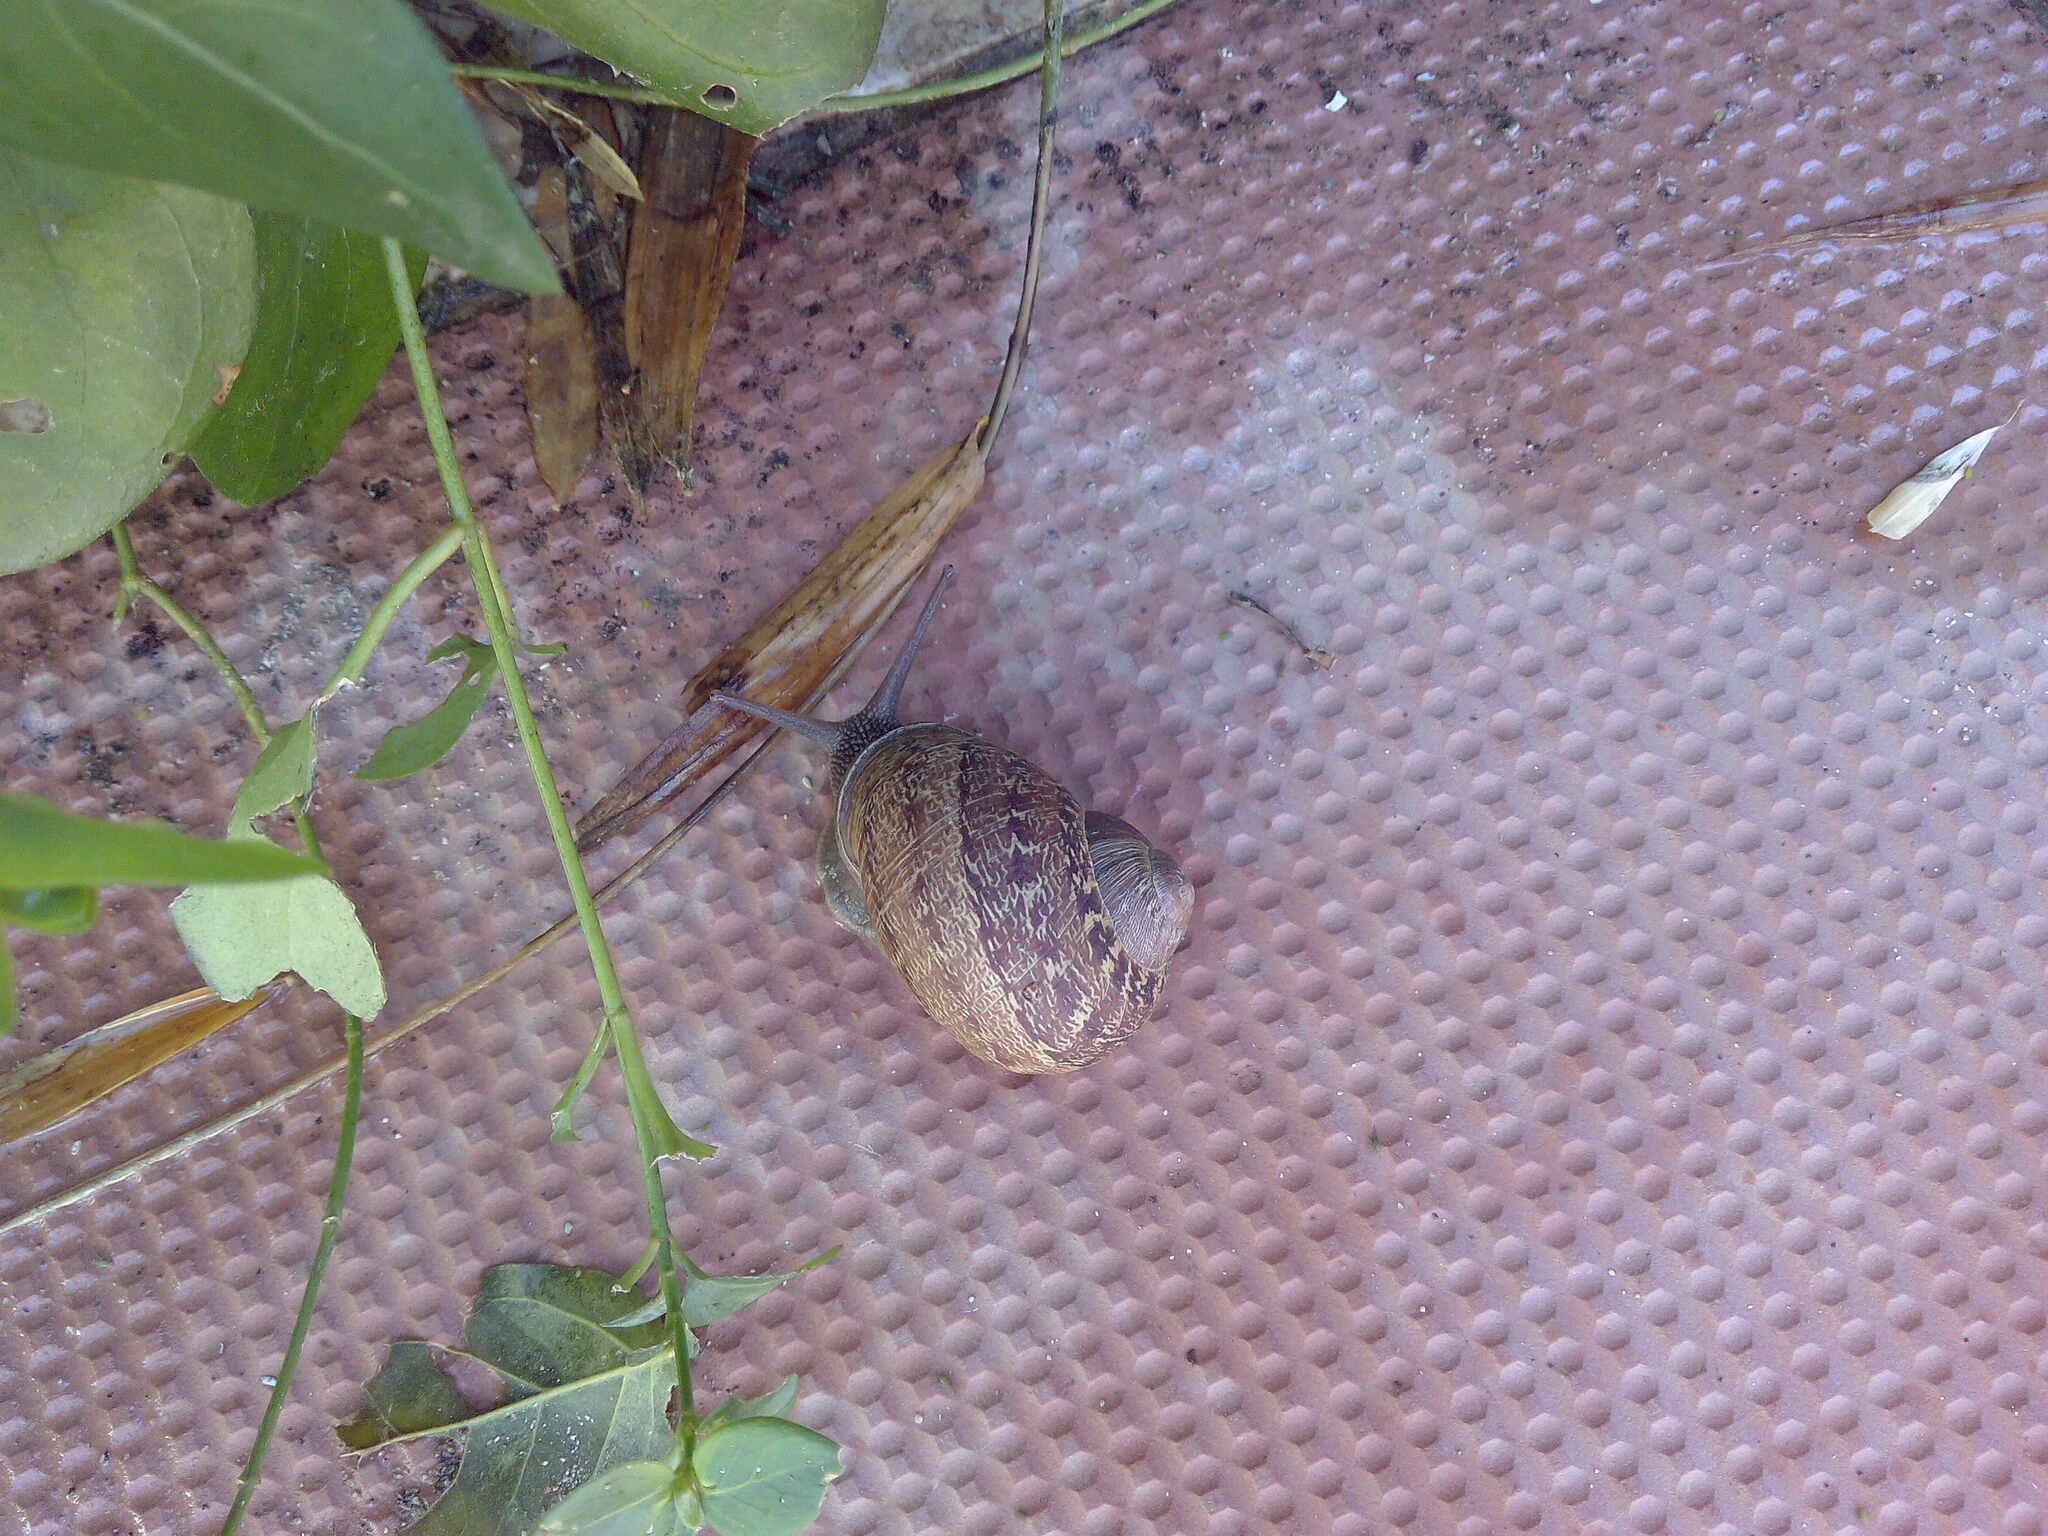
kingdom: Animalia
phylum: Mollusca
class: Gastropoda
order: Stylommatophora
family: Helicidae
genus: Cornu
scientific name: Cornu aspersum
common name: Brown garden snail
